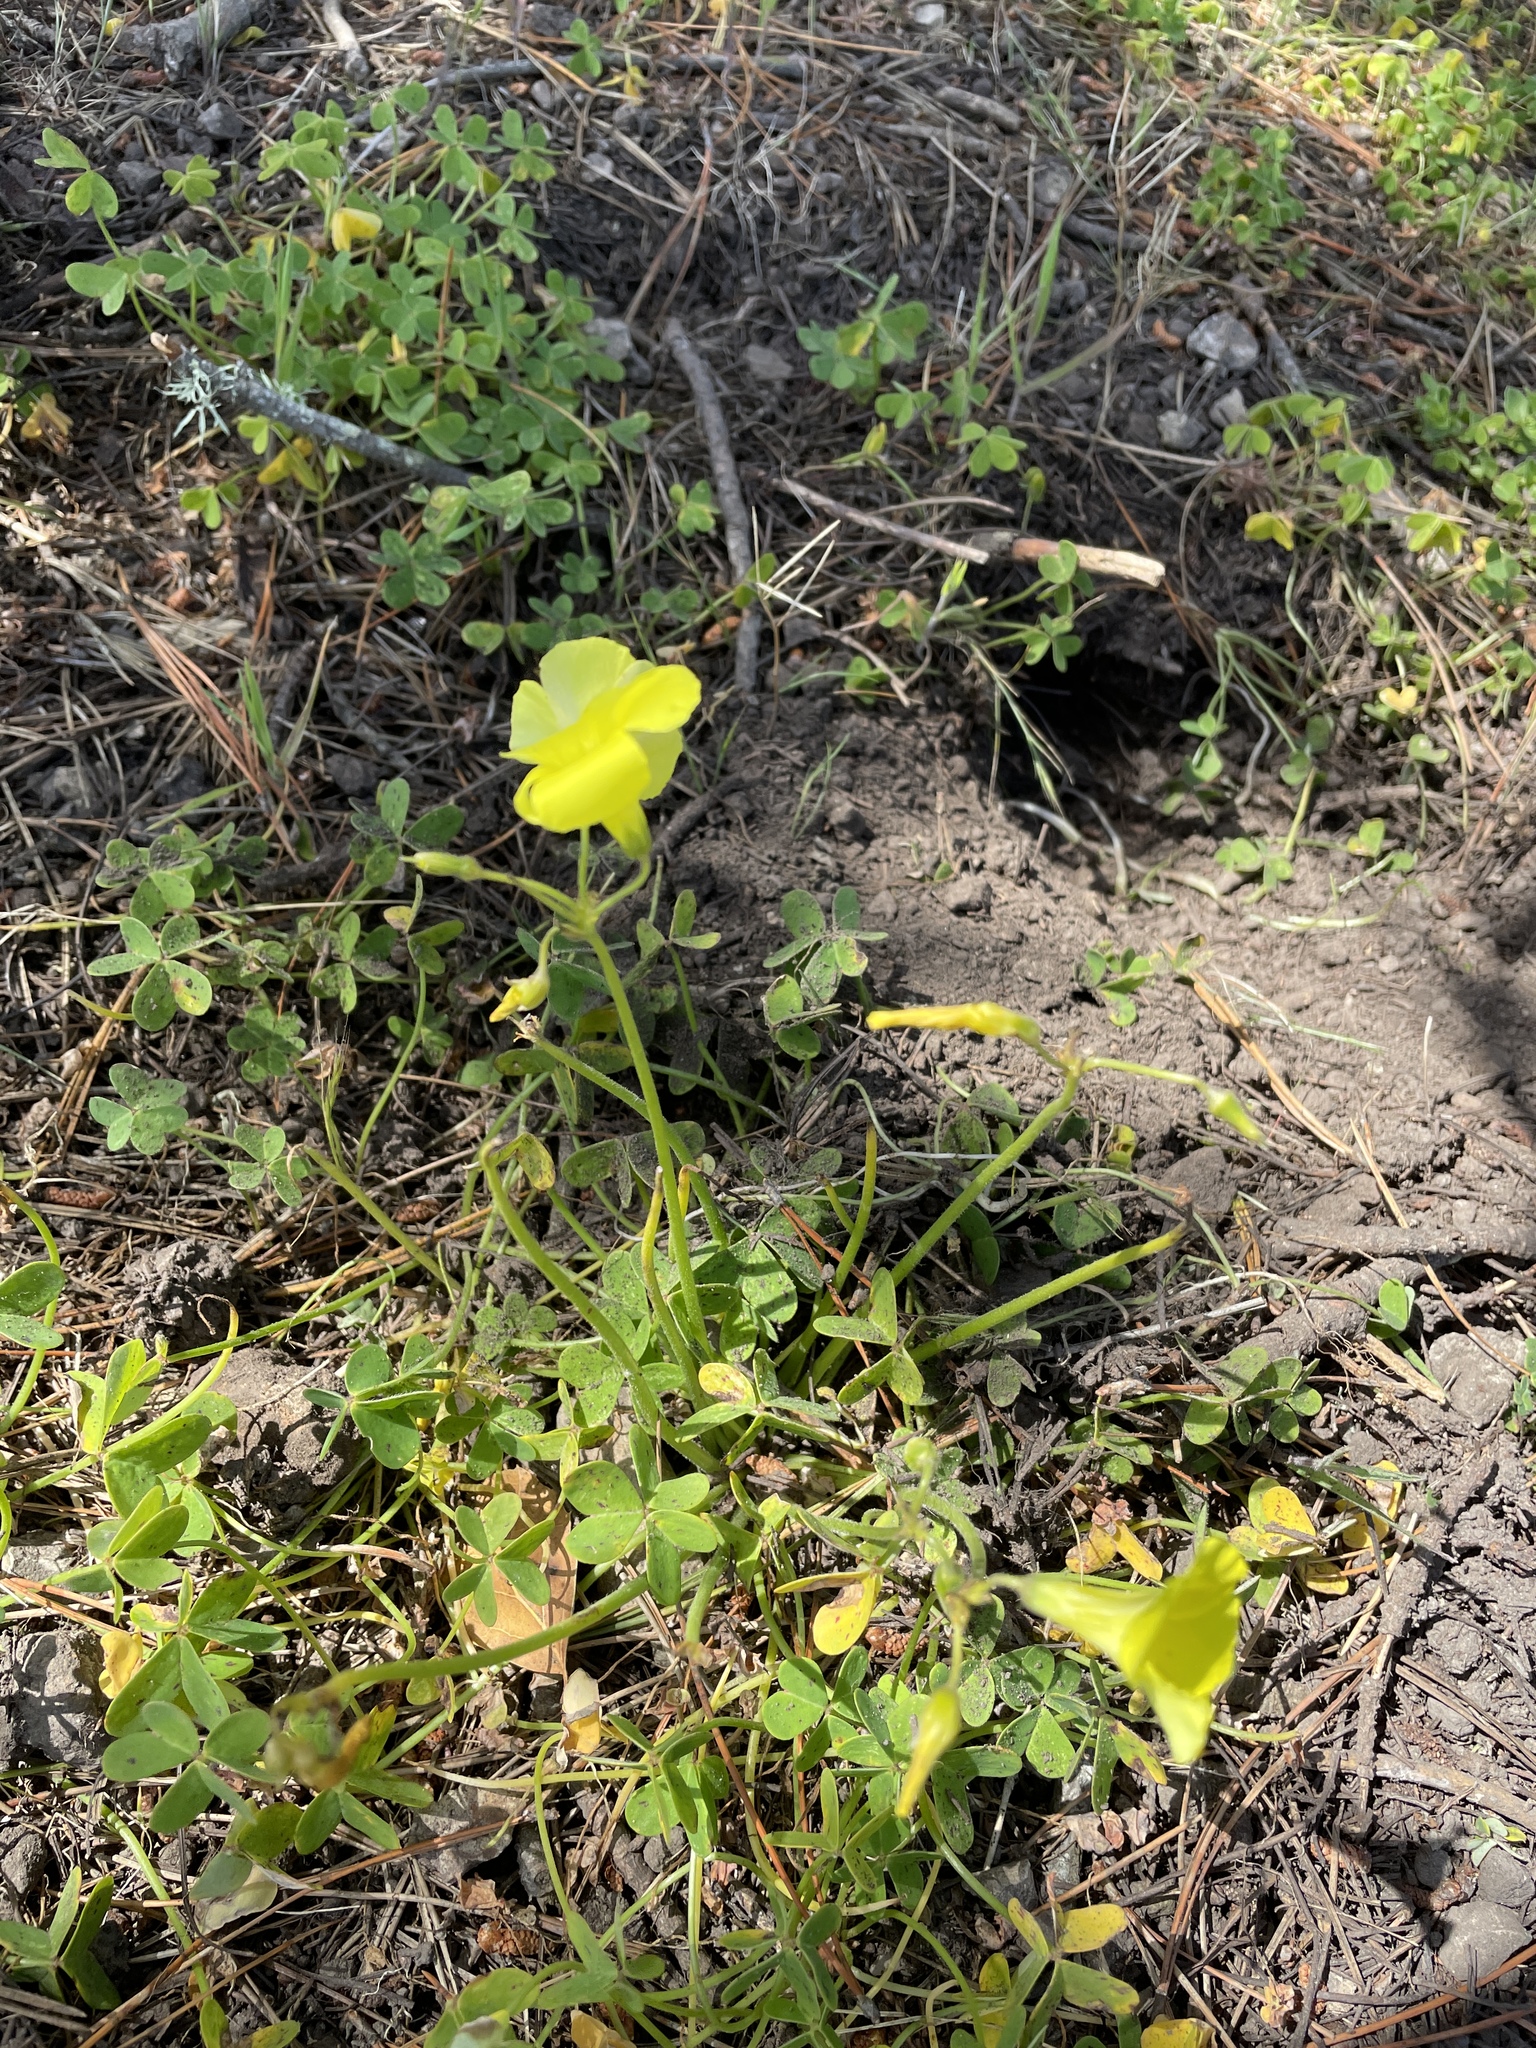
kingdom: Plantae
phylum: Tracheophyta
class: Magnoliopsida
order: Oxalidales
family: Oxalidaceae
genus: Oxalis
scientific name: Oxalis pes-caprae
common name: Bermuda-buttercup
